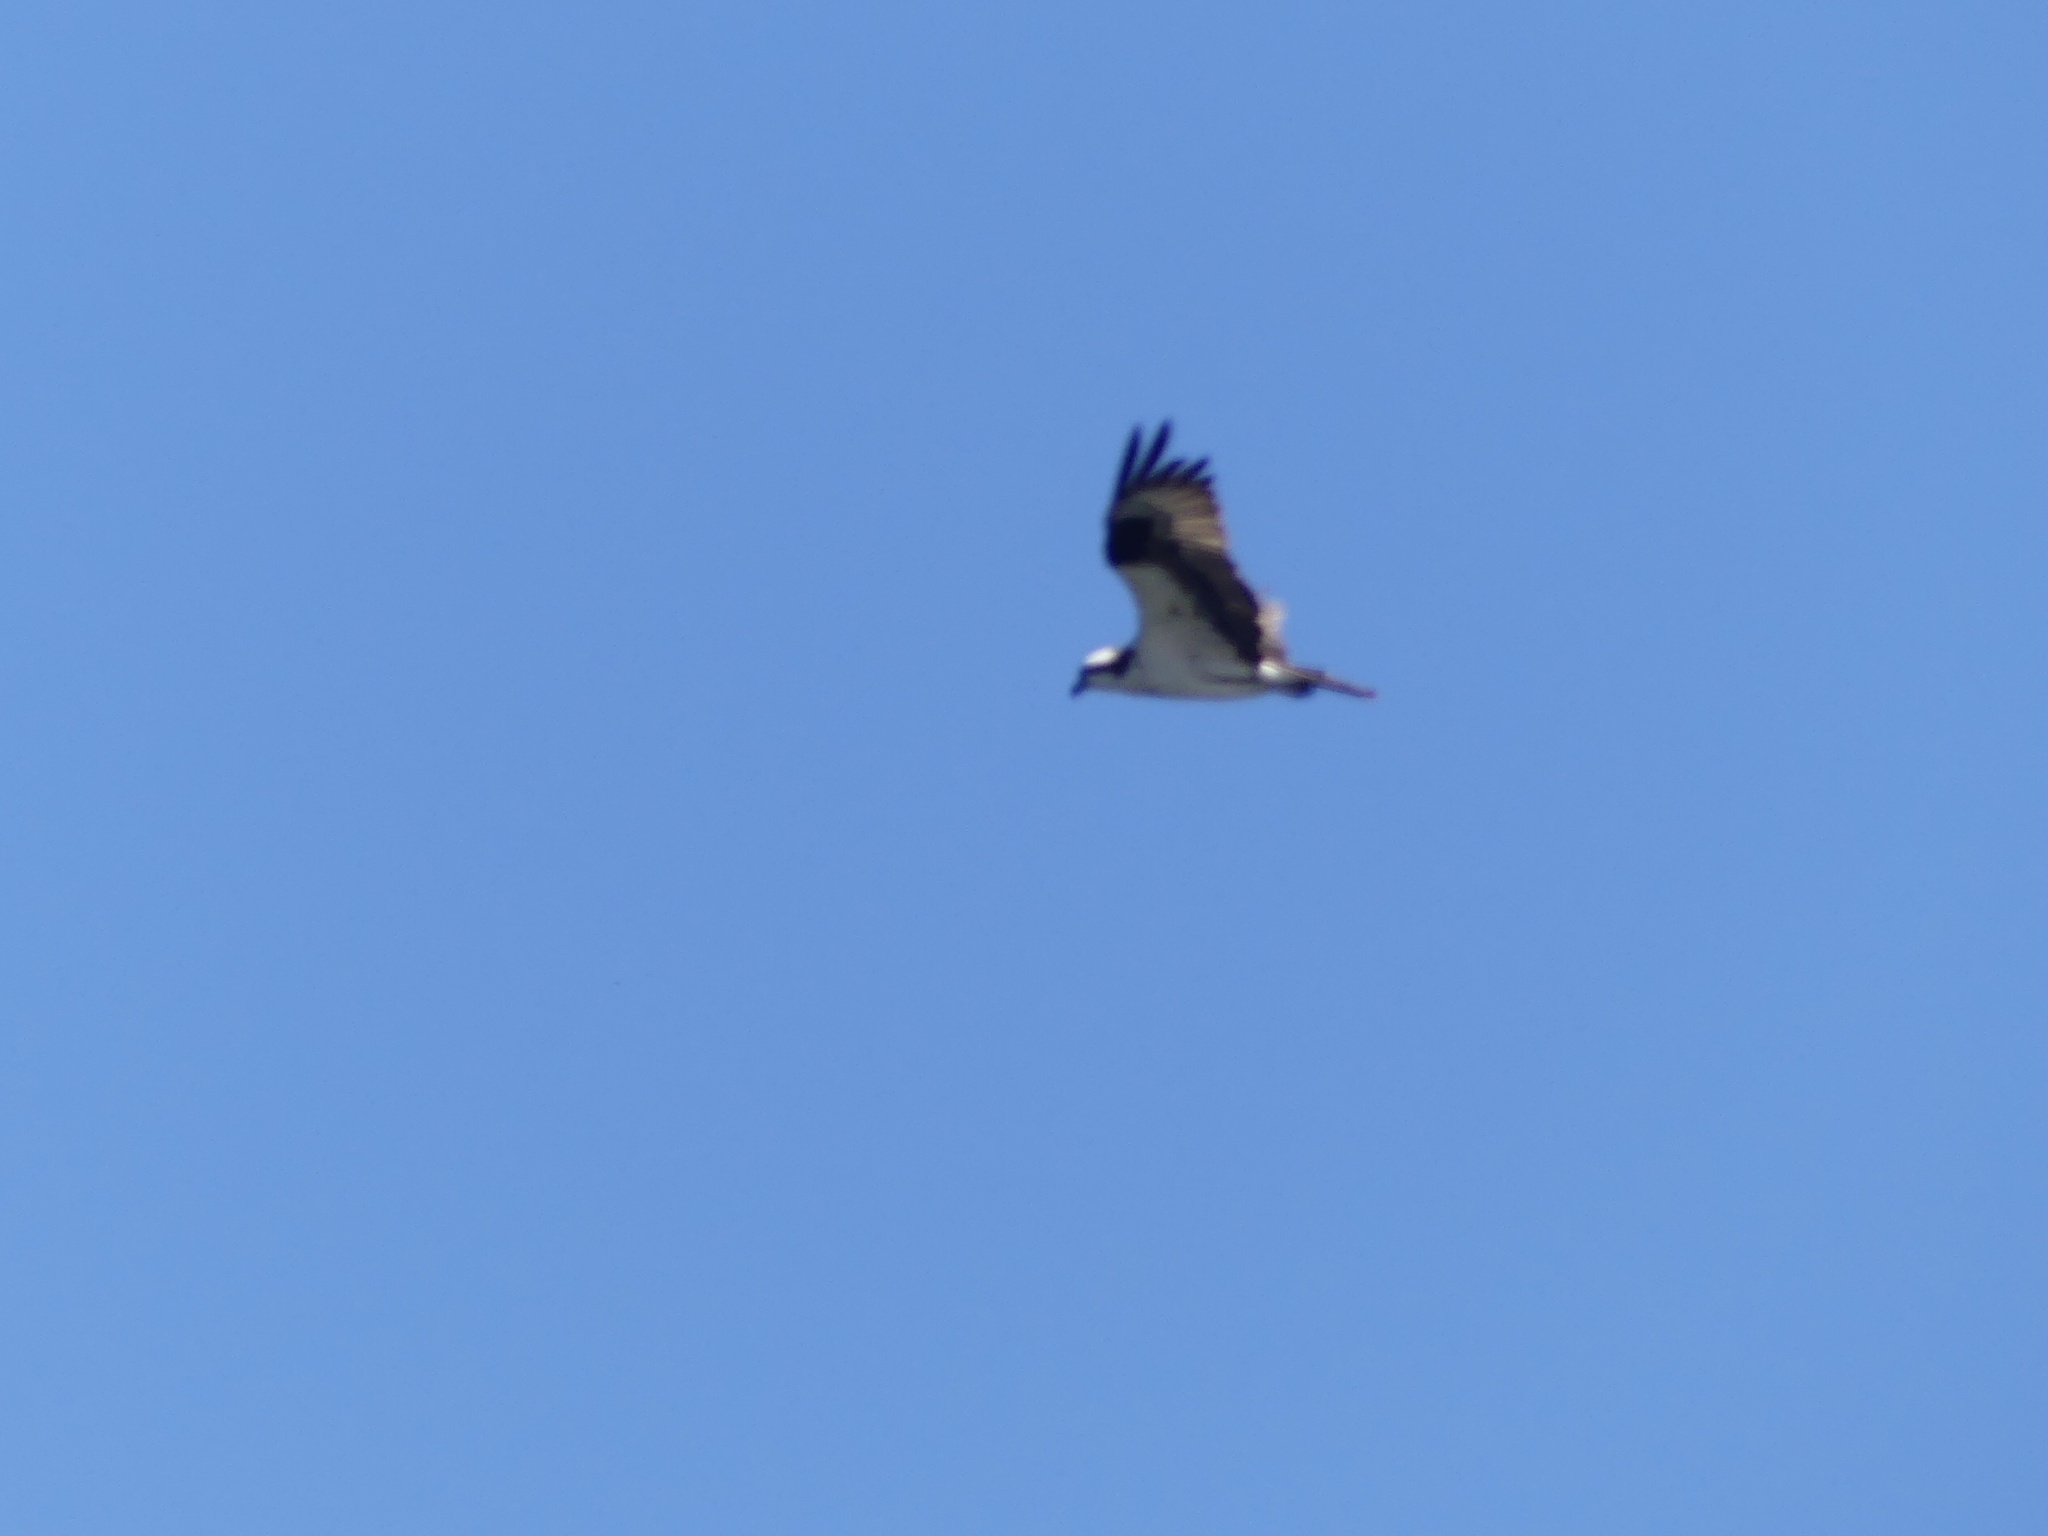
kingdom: Animalia
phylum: Chordata
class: Aves
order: Accipitriformes
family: Pandionidae
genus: Pandion
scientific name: Pandion haliaetus
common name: Osprey
